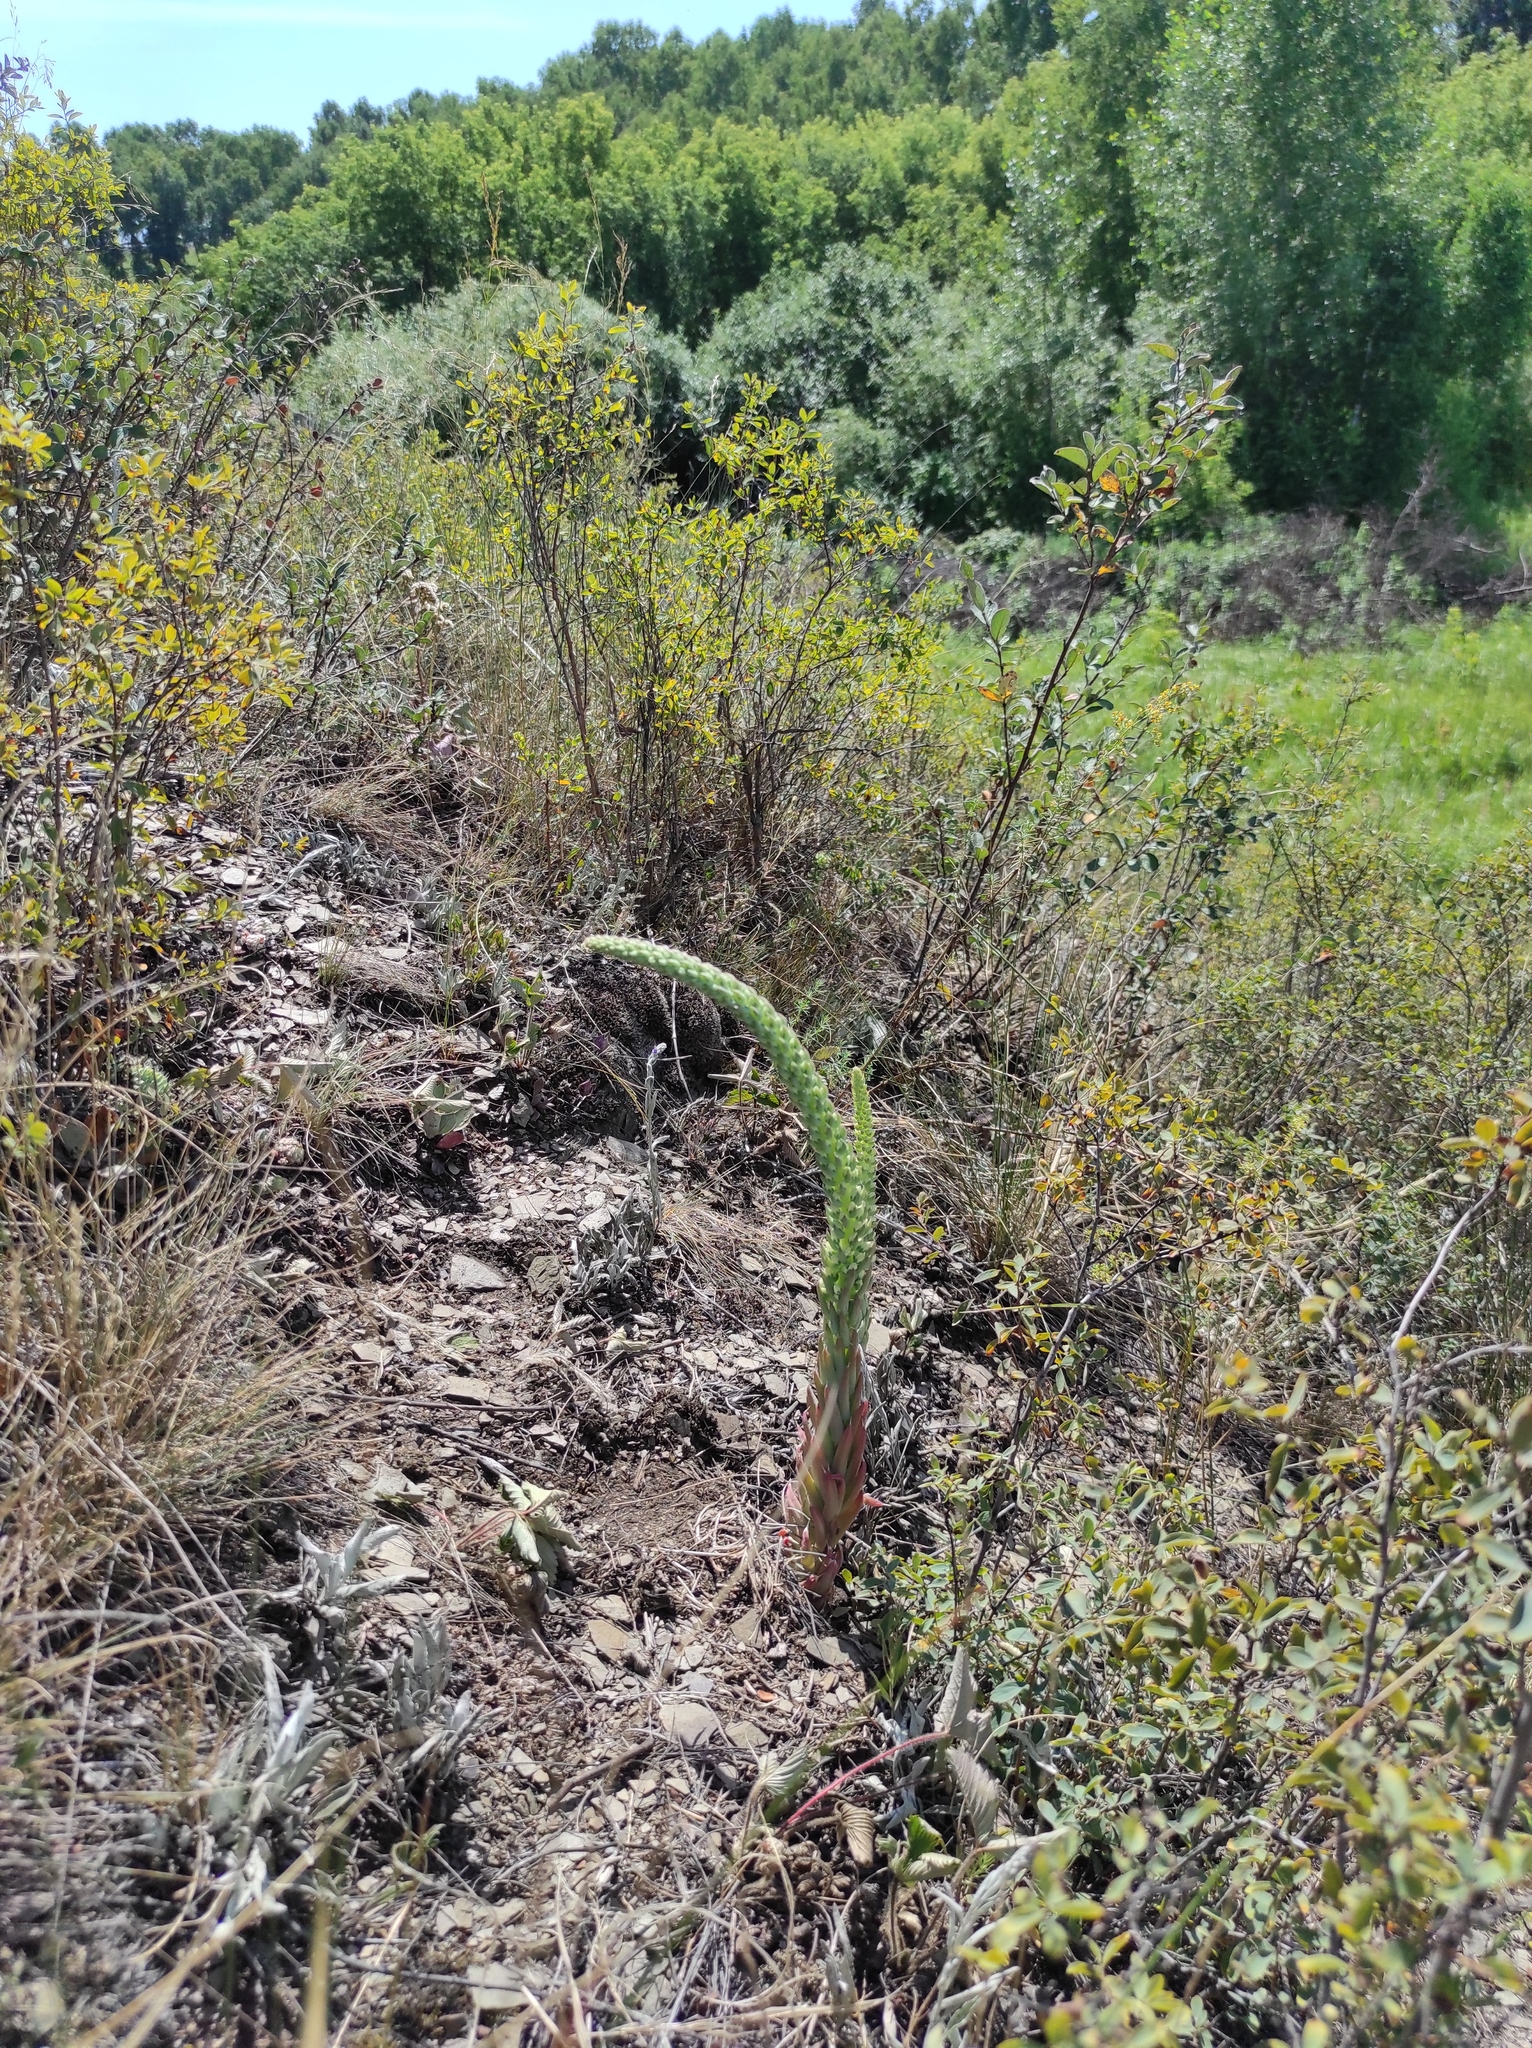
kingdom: Plantae
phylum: Tracheophyta
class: Magnoliopsida
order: Saxifragales
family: Crassulaceae
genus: Orostachys
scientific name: Orostachys spinosa
